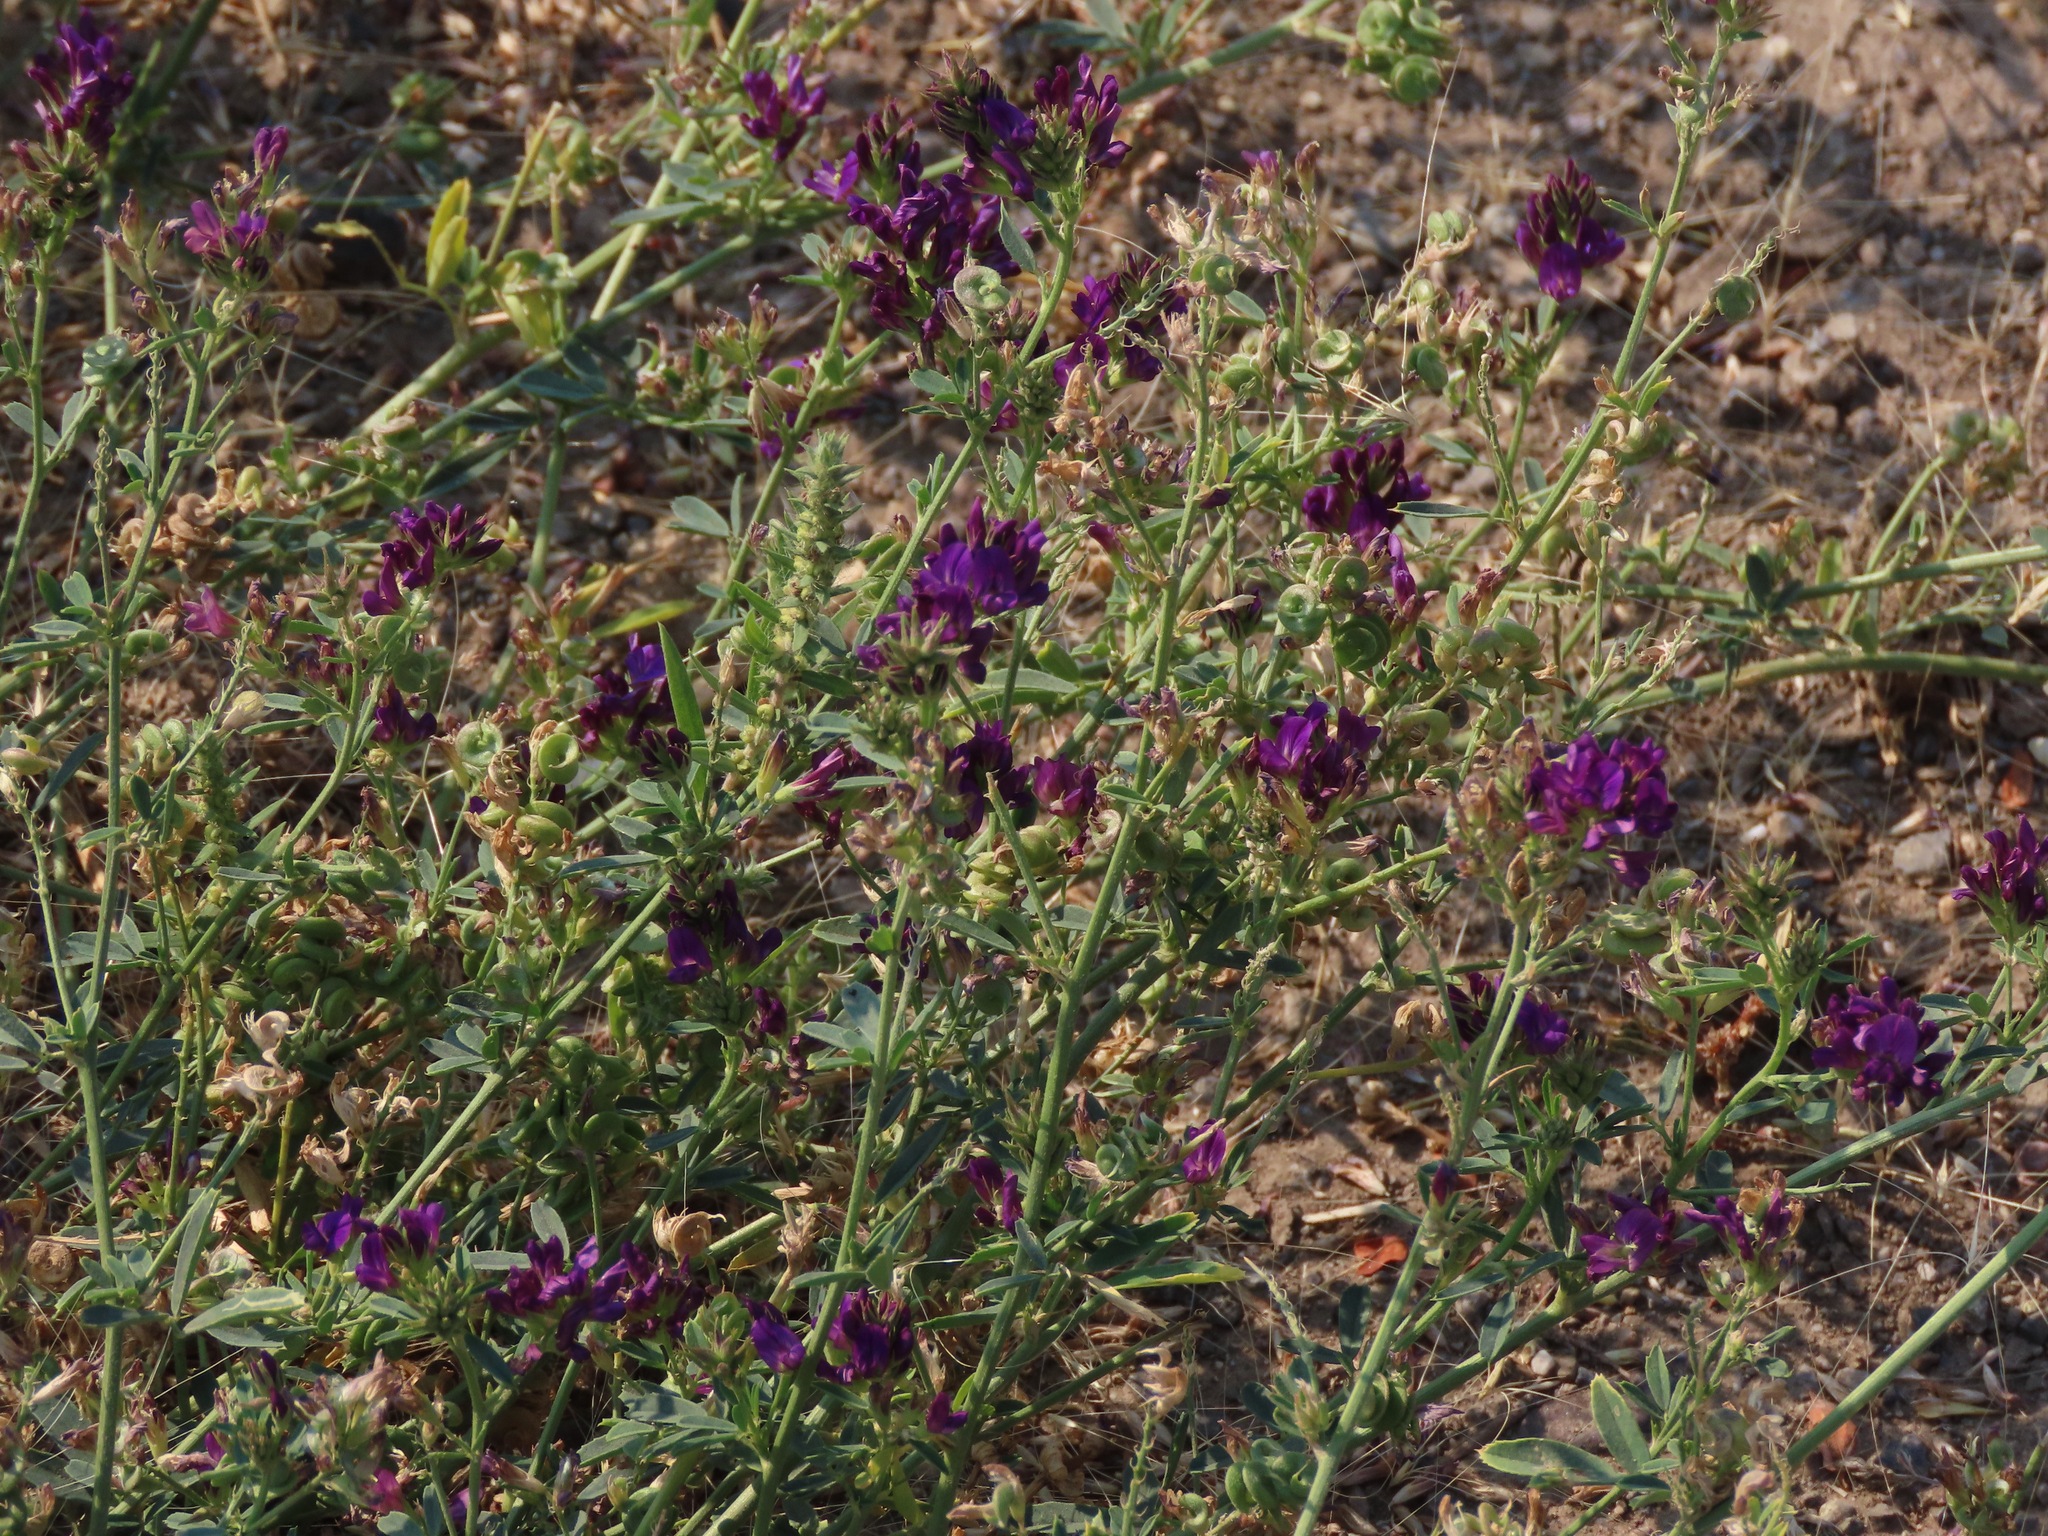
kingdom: Plantae
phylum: Tracheophyta
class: Magnoliopsida
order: Fabales
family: Fabaceae
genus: Medicago
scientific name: Medicago sativa
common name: Alfalfa
